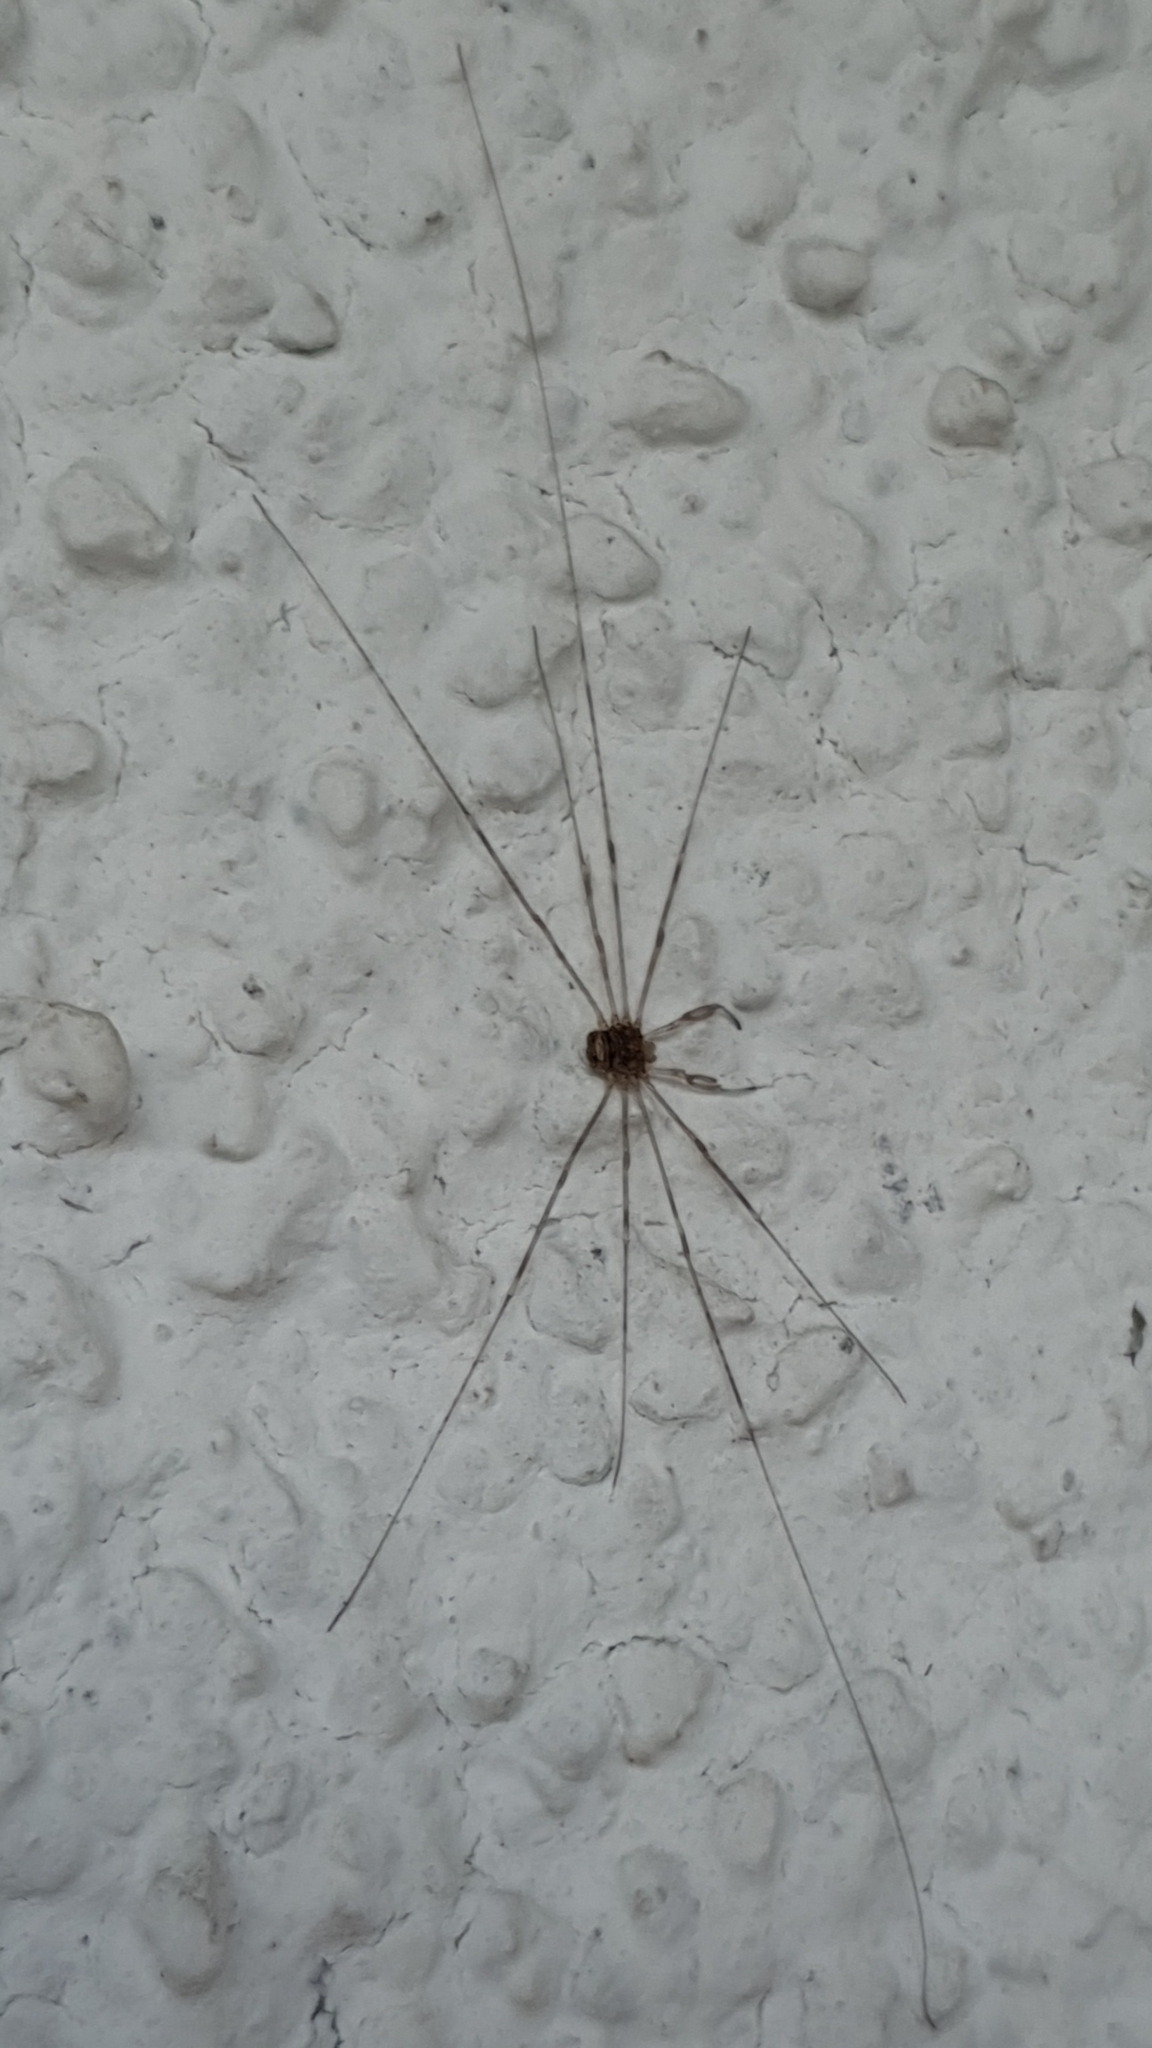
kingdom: Animalia
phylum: Arthropoda
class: Arachnida
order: Opiliones
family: Phalangiidae
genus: Dicranopalpus
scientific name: Dicranopalpus ramosus
